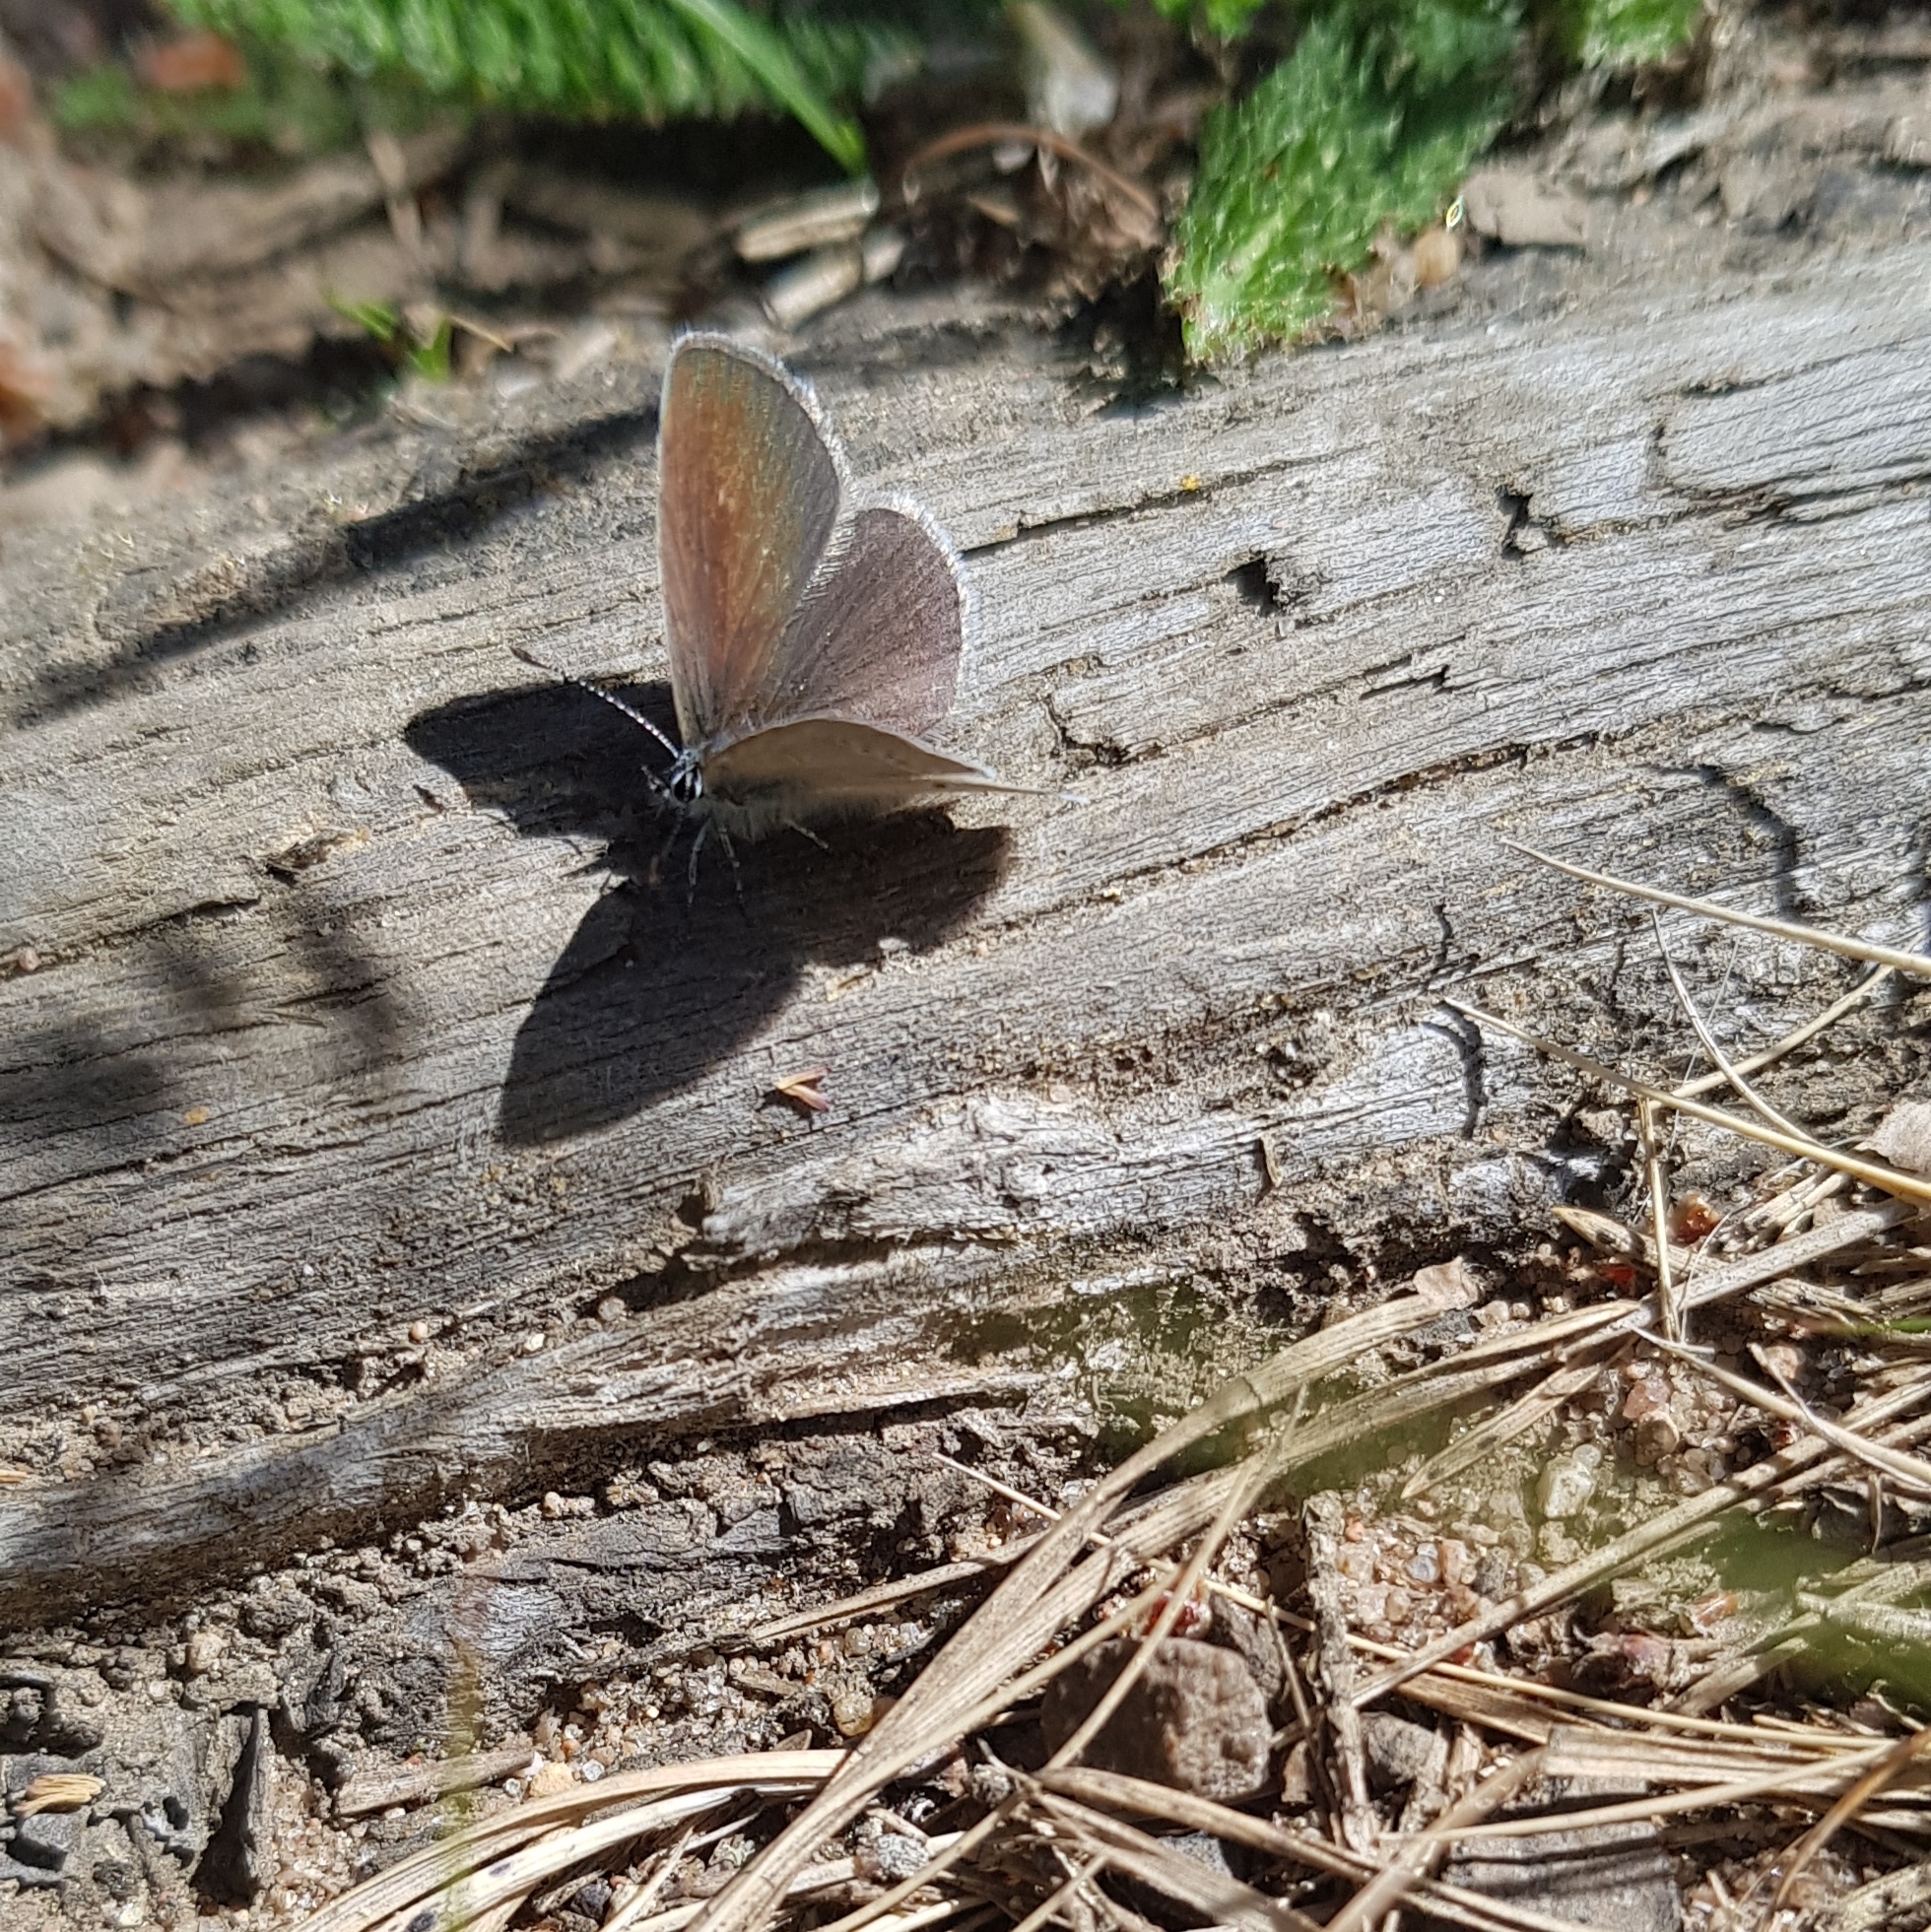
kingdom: Animalia
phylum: Arthropoda
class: Insecta
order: Lepidoptera
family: Lycaenidae
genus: Cupido
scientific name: Cupido minimus
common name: Small blue
